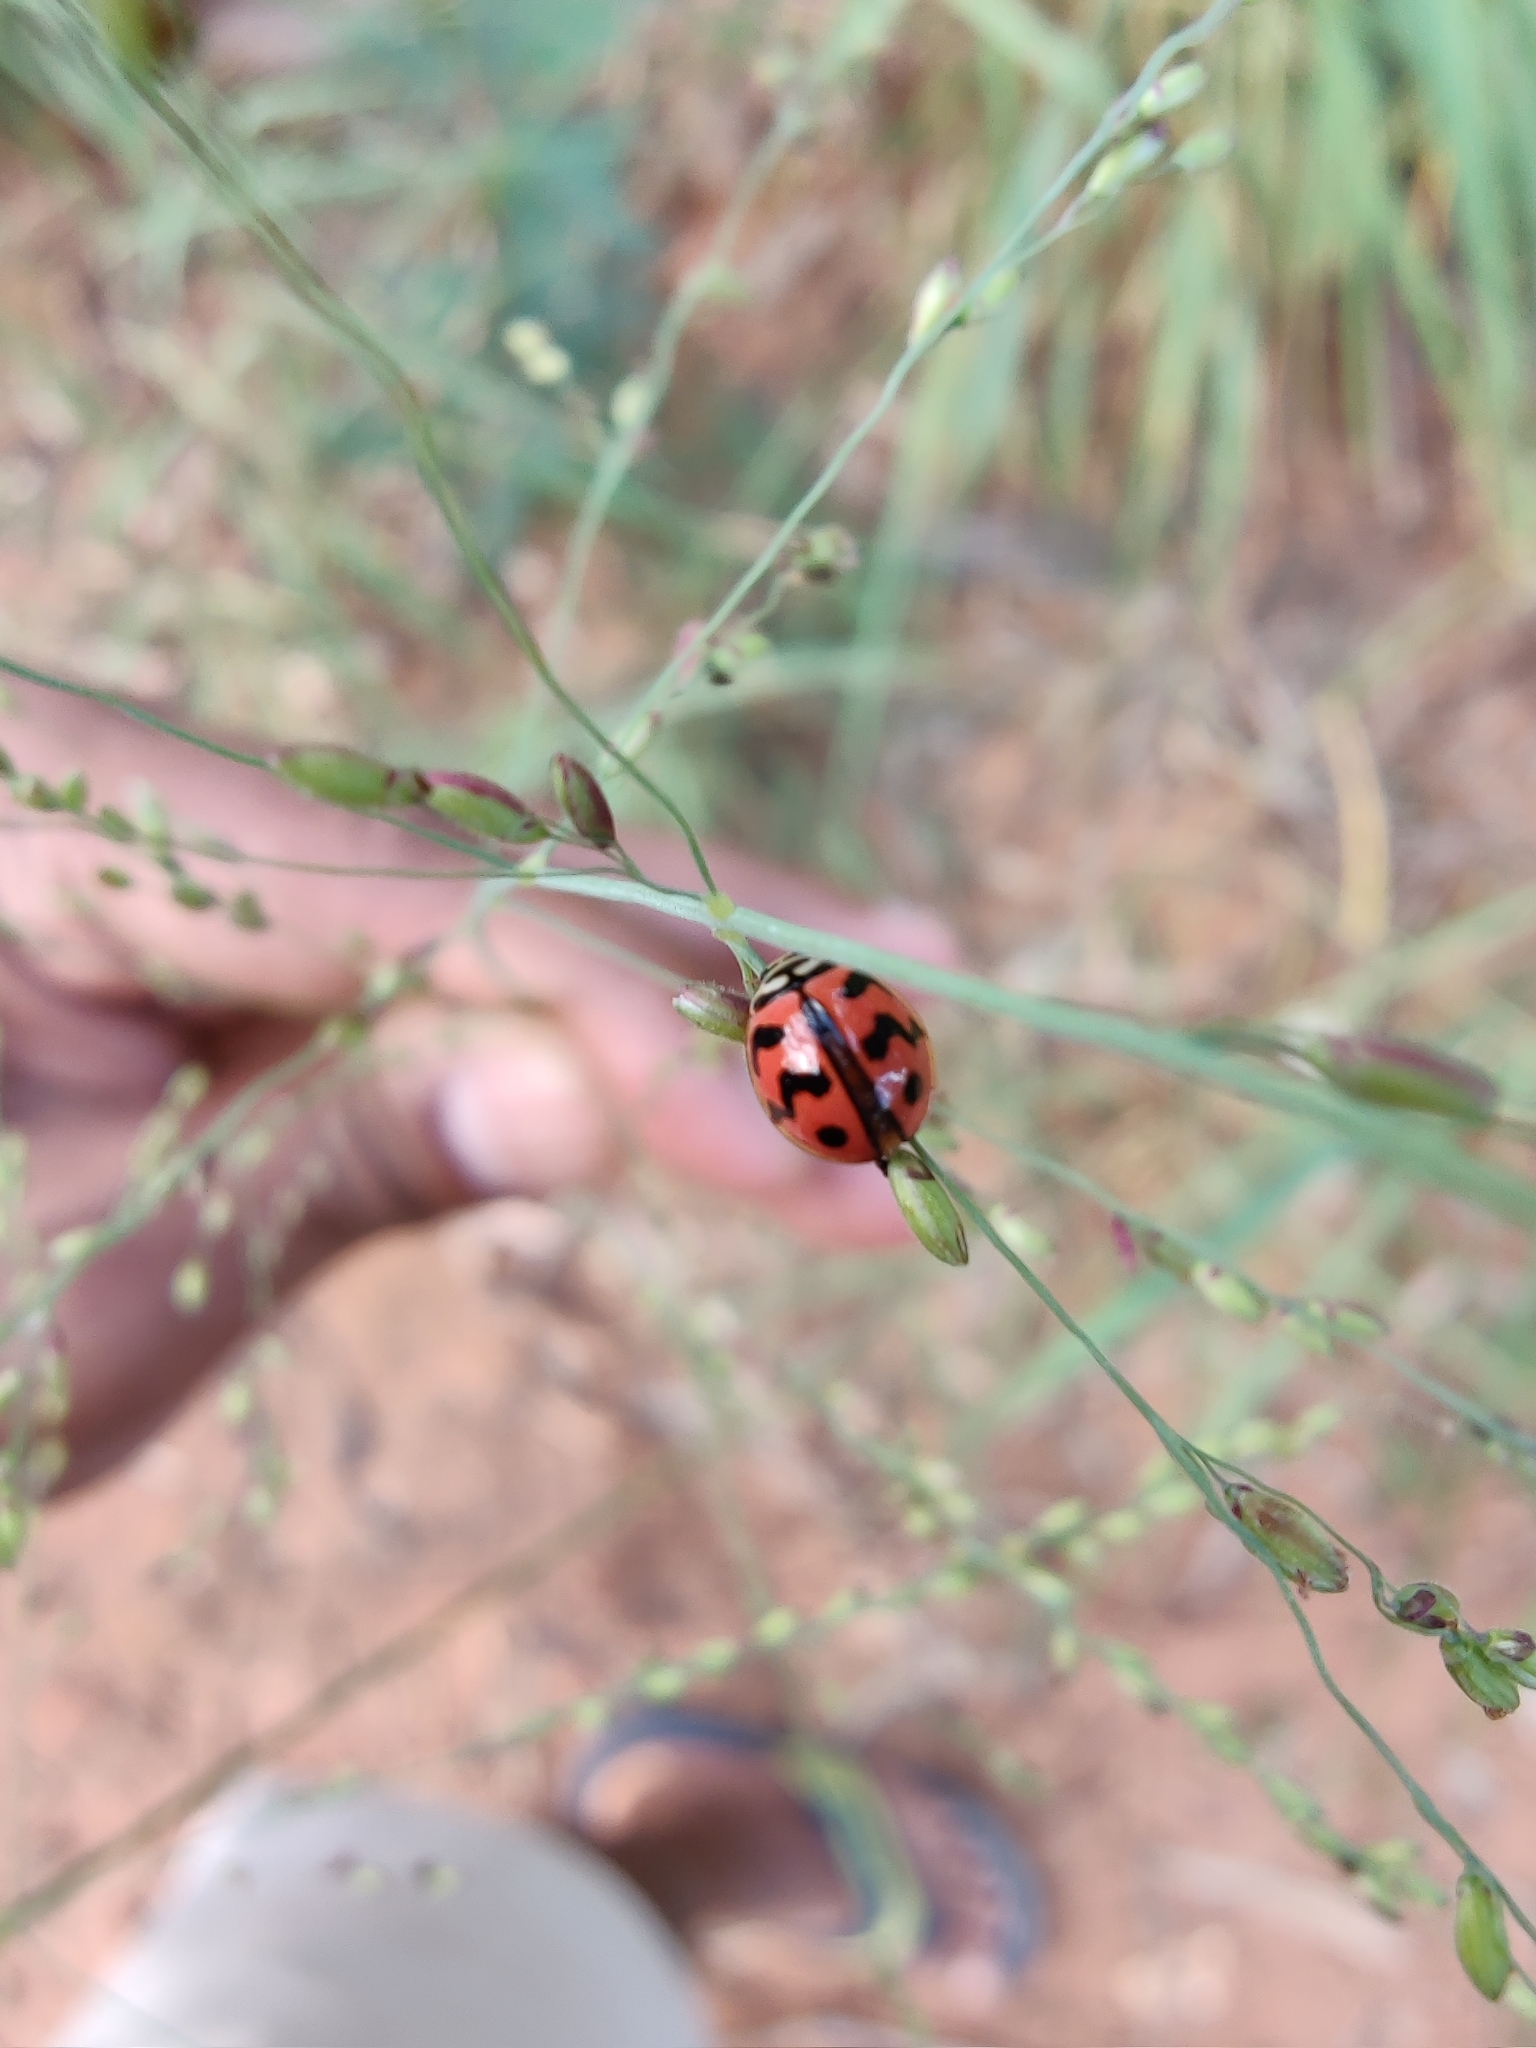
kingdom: Animalia
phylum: Arthropoda
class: Insecta
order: Coleoptera
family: Coccinellidae
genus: Cheilomenes
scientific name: Cheilomenes sexmaculata
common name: Ladybird beetle
